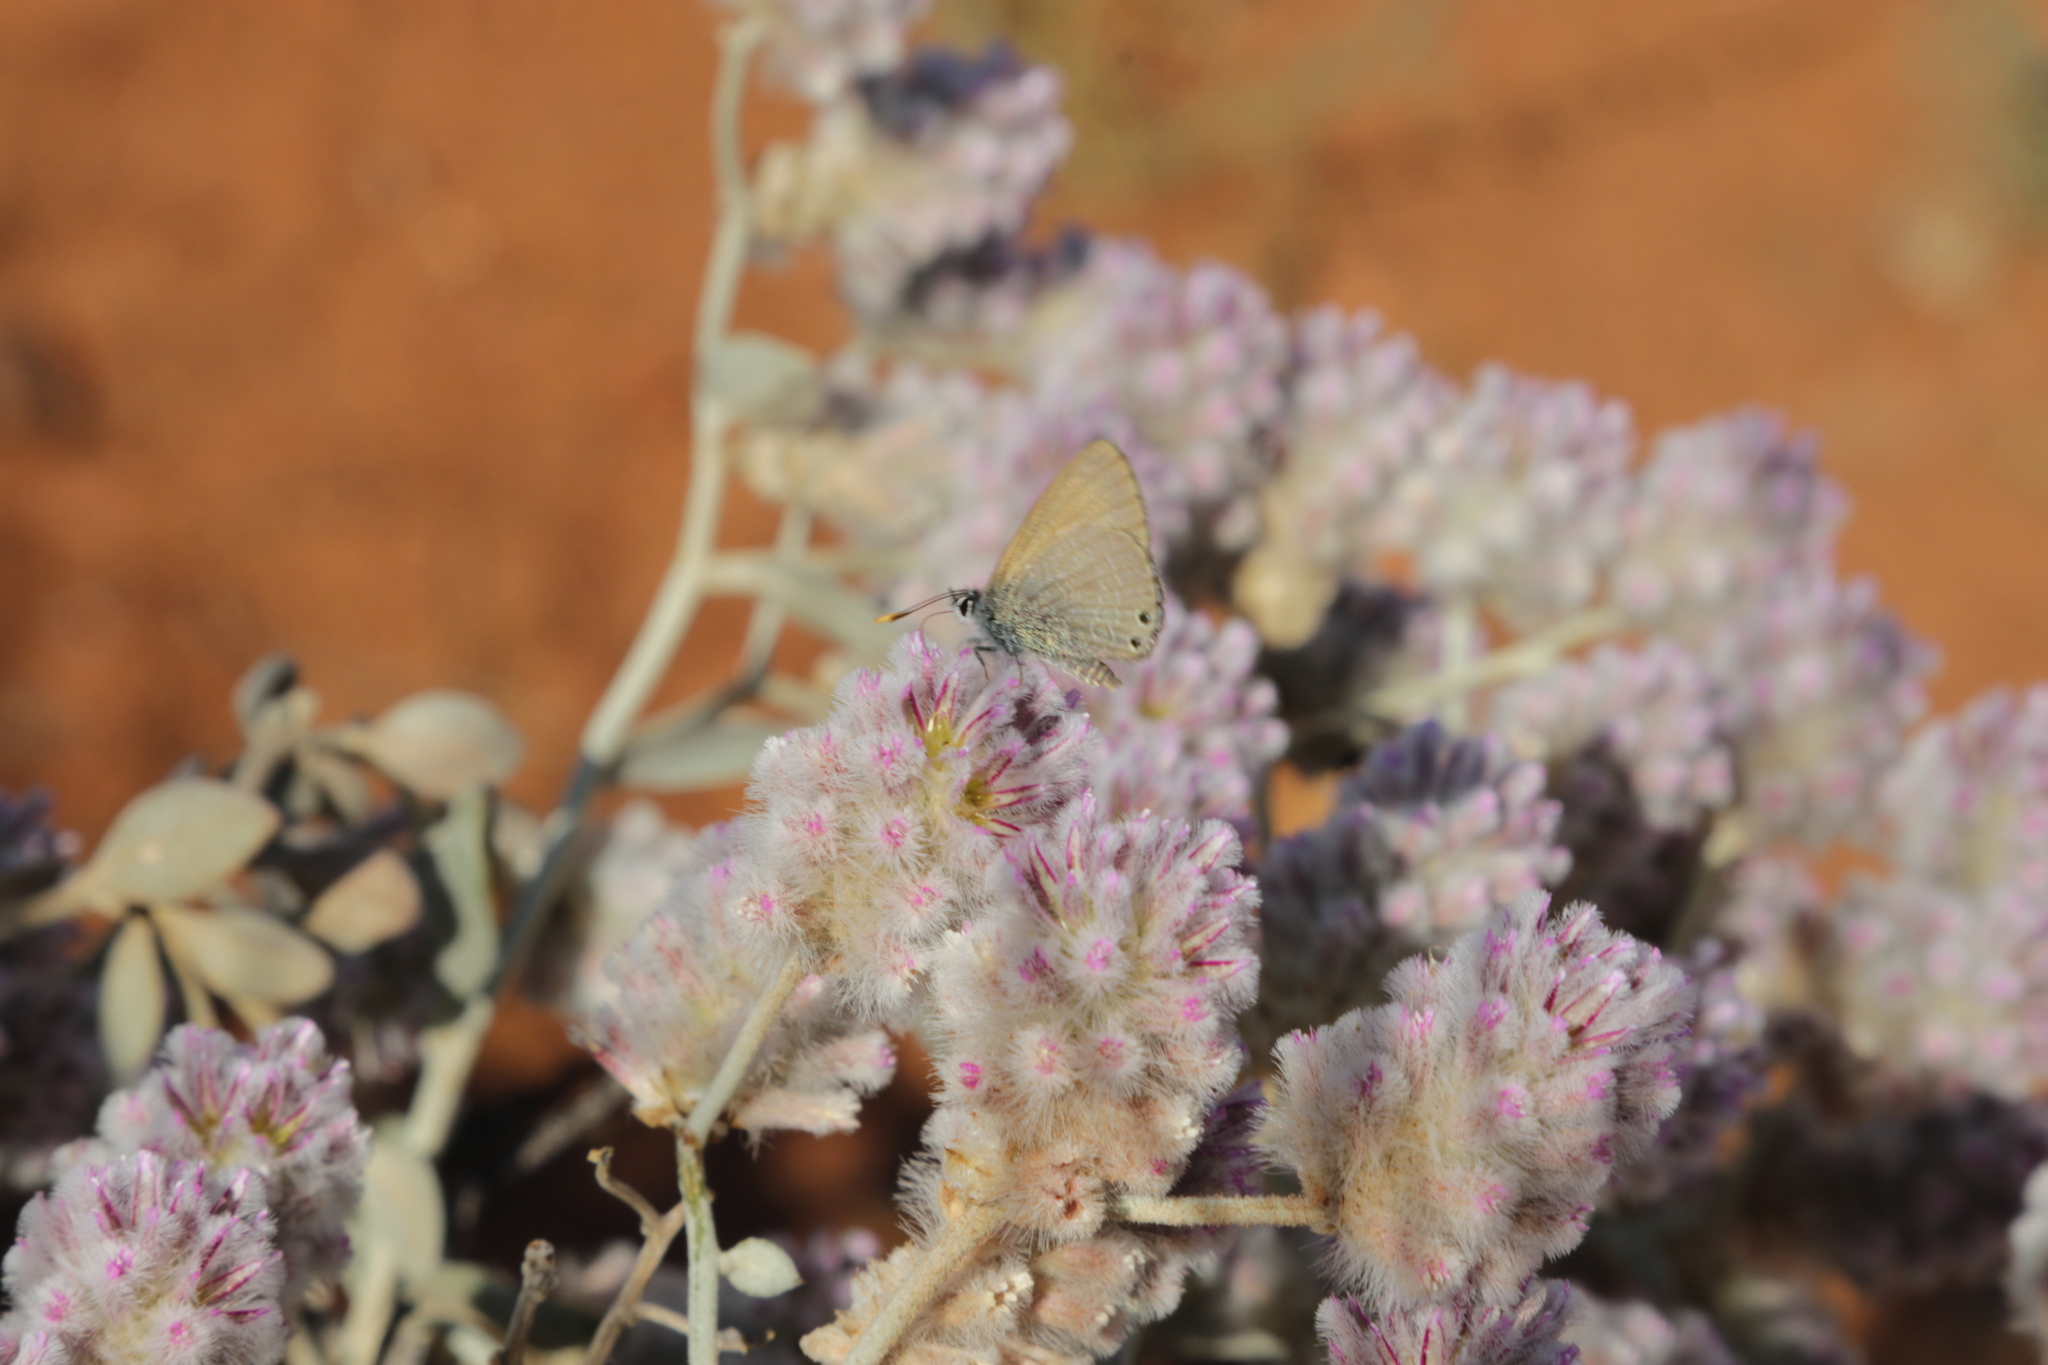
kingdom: Animalia
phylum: Arthropoda
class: Insecta
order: Lepidoptera
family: Lycaenidae
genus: Nacaduba
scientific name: Nacaduba biocellata
